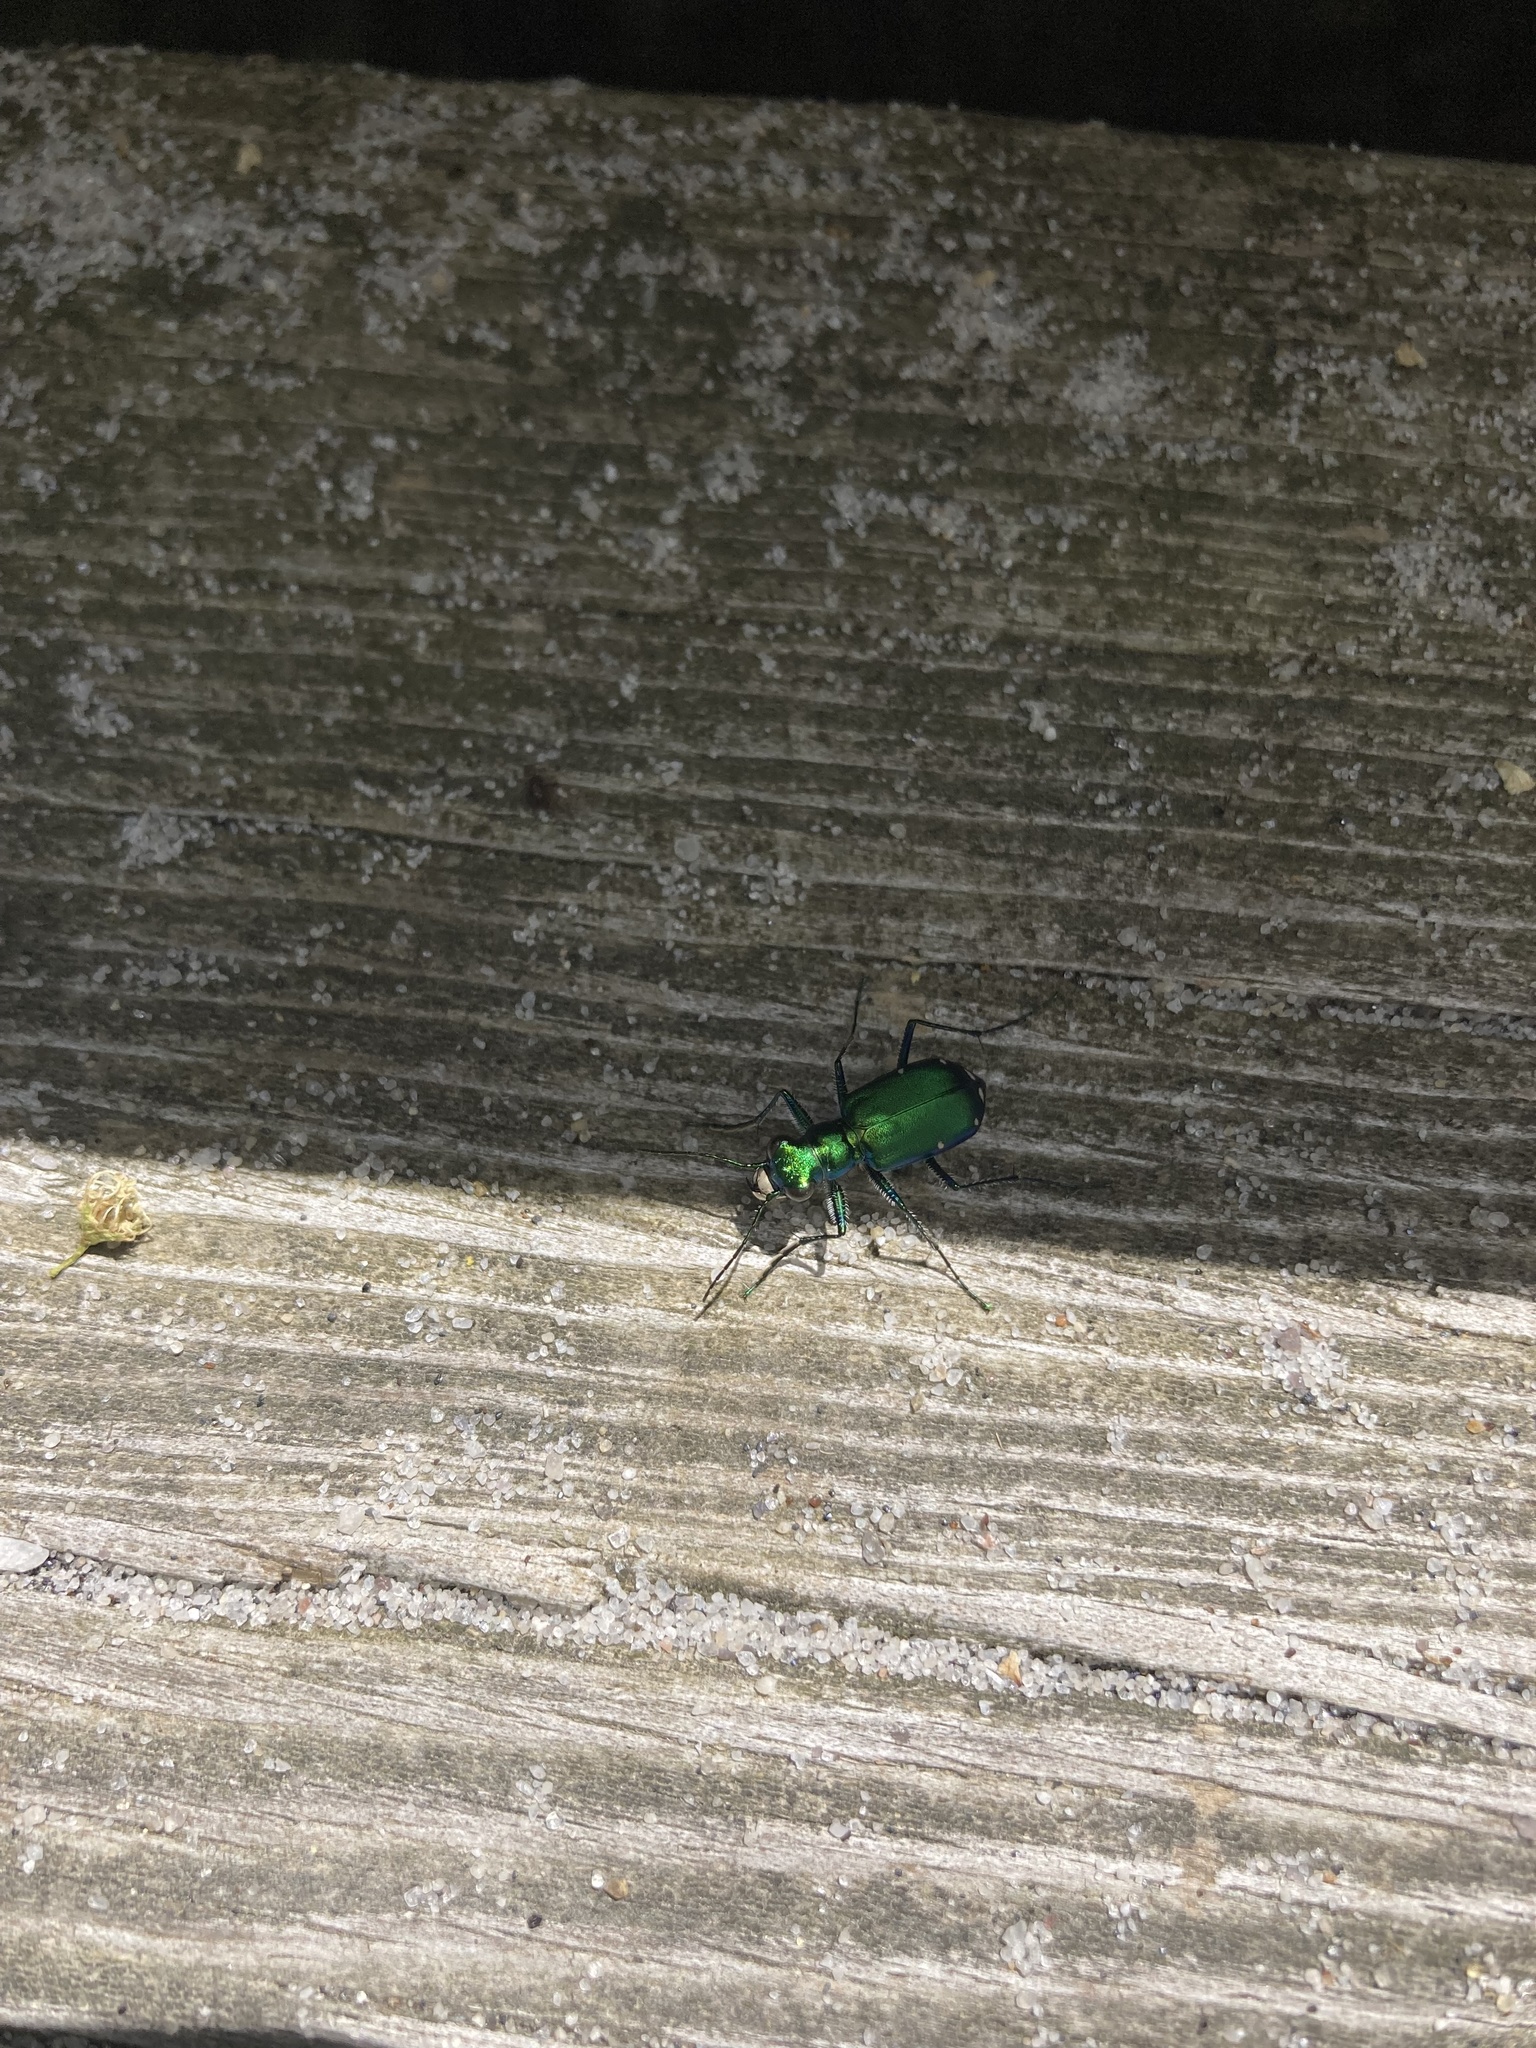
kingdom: Animalia
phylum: Arthropoda
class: Insecta
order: Coleoptera
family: Carabidae
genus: Cicindela
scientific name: Cicindela sexguttata
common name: Six-spotted tiger beetle
